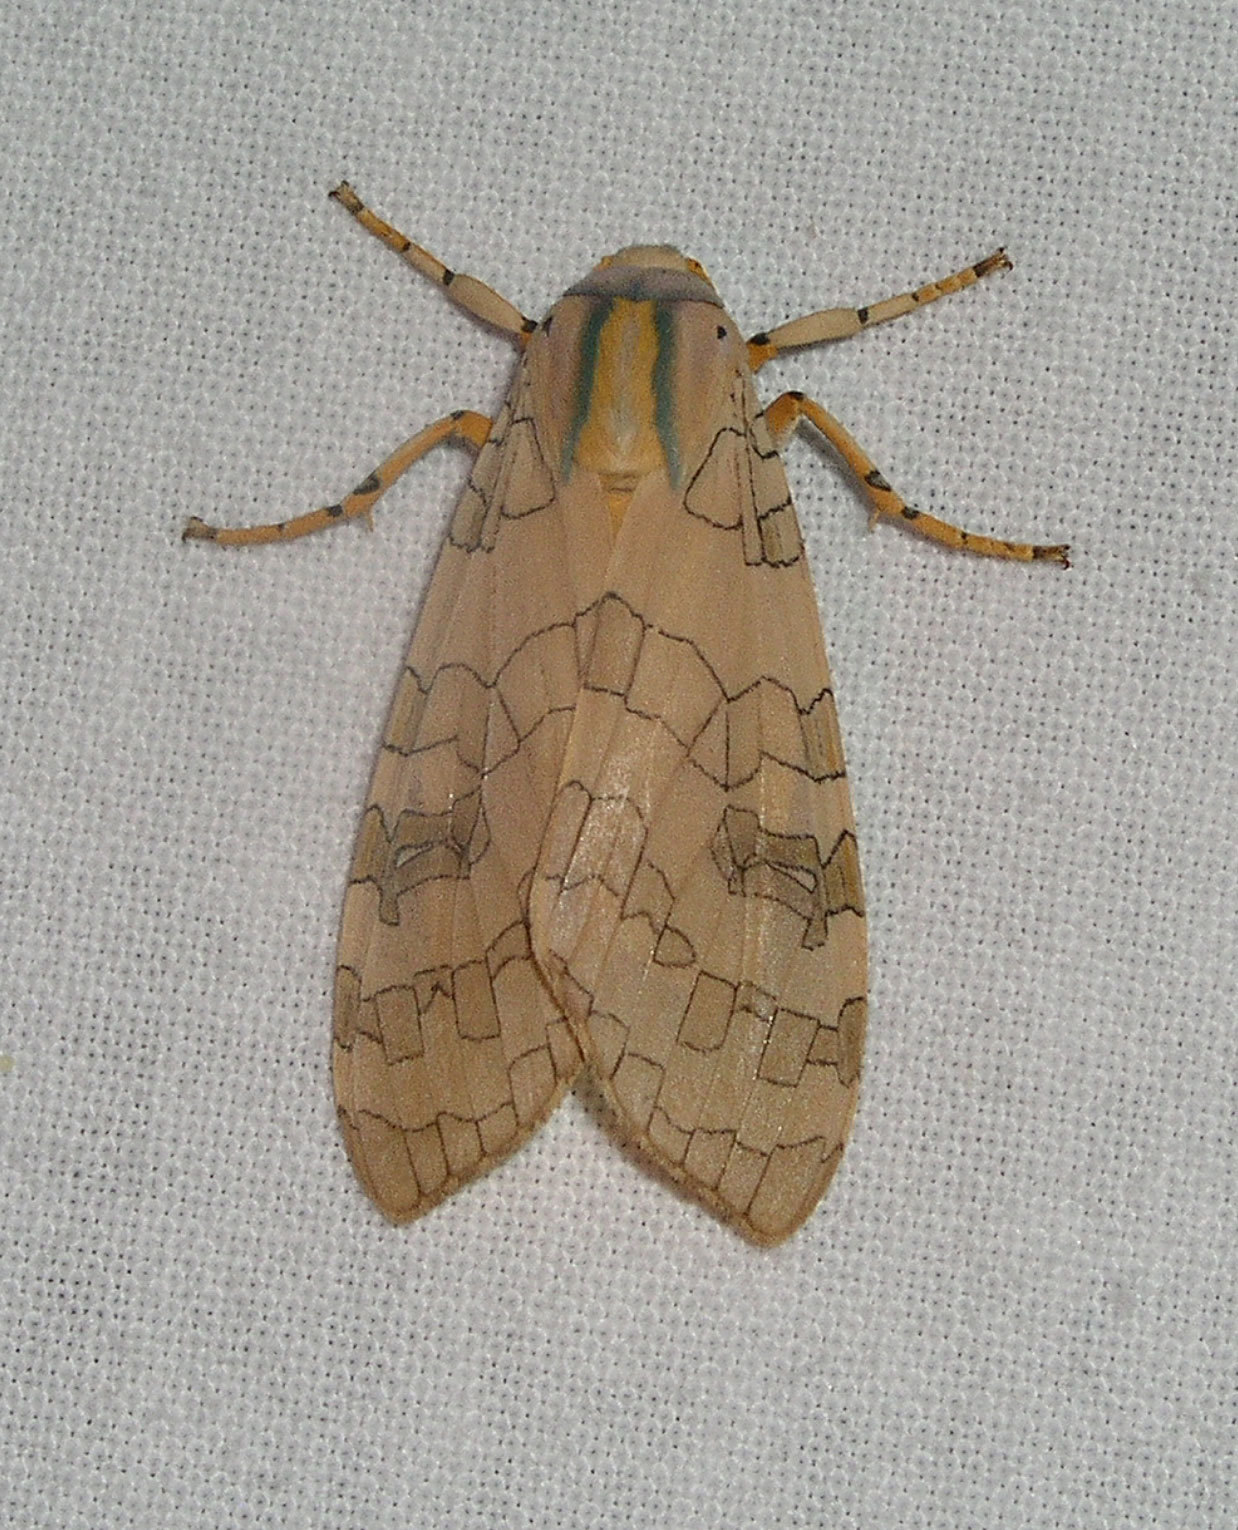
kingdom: Animalia
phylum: Arthropoda
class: Insecta
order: Lepidoptera
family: Erebidae
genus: Halysidota
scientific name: Halysidota
